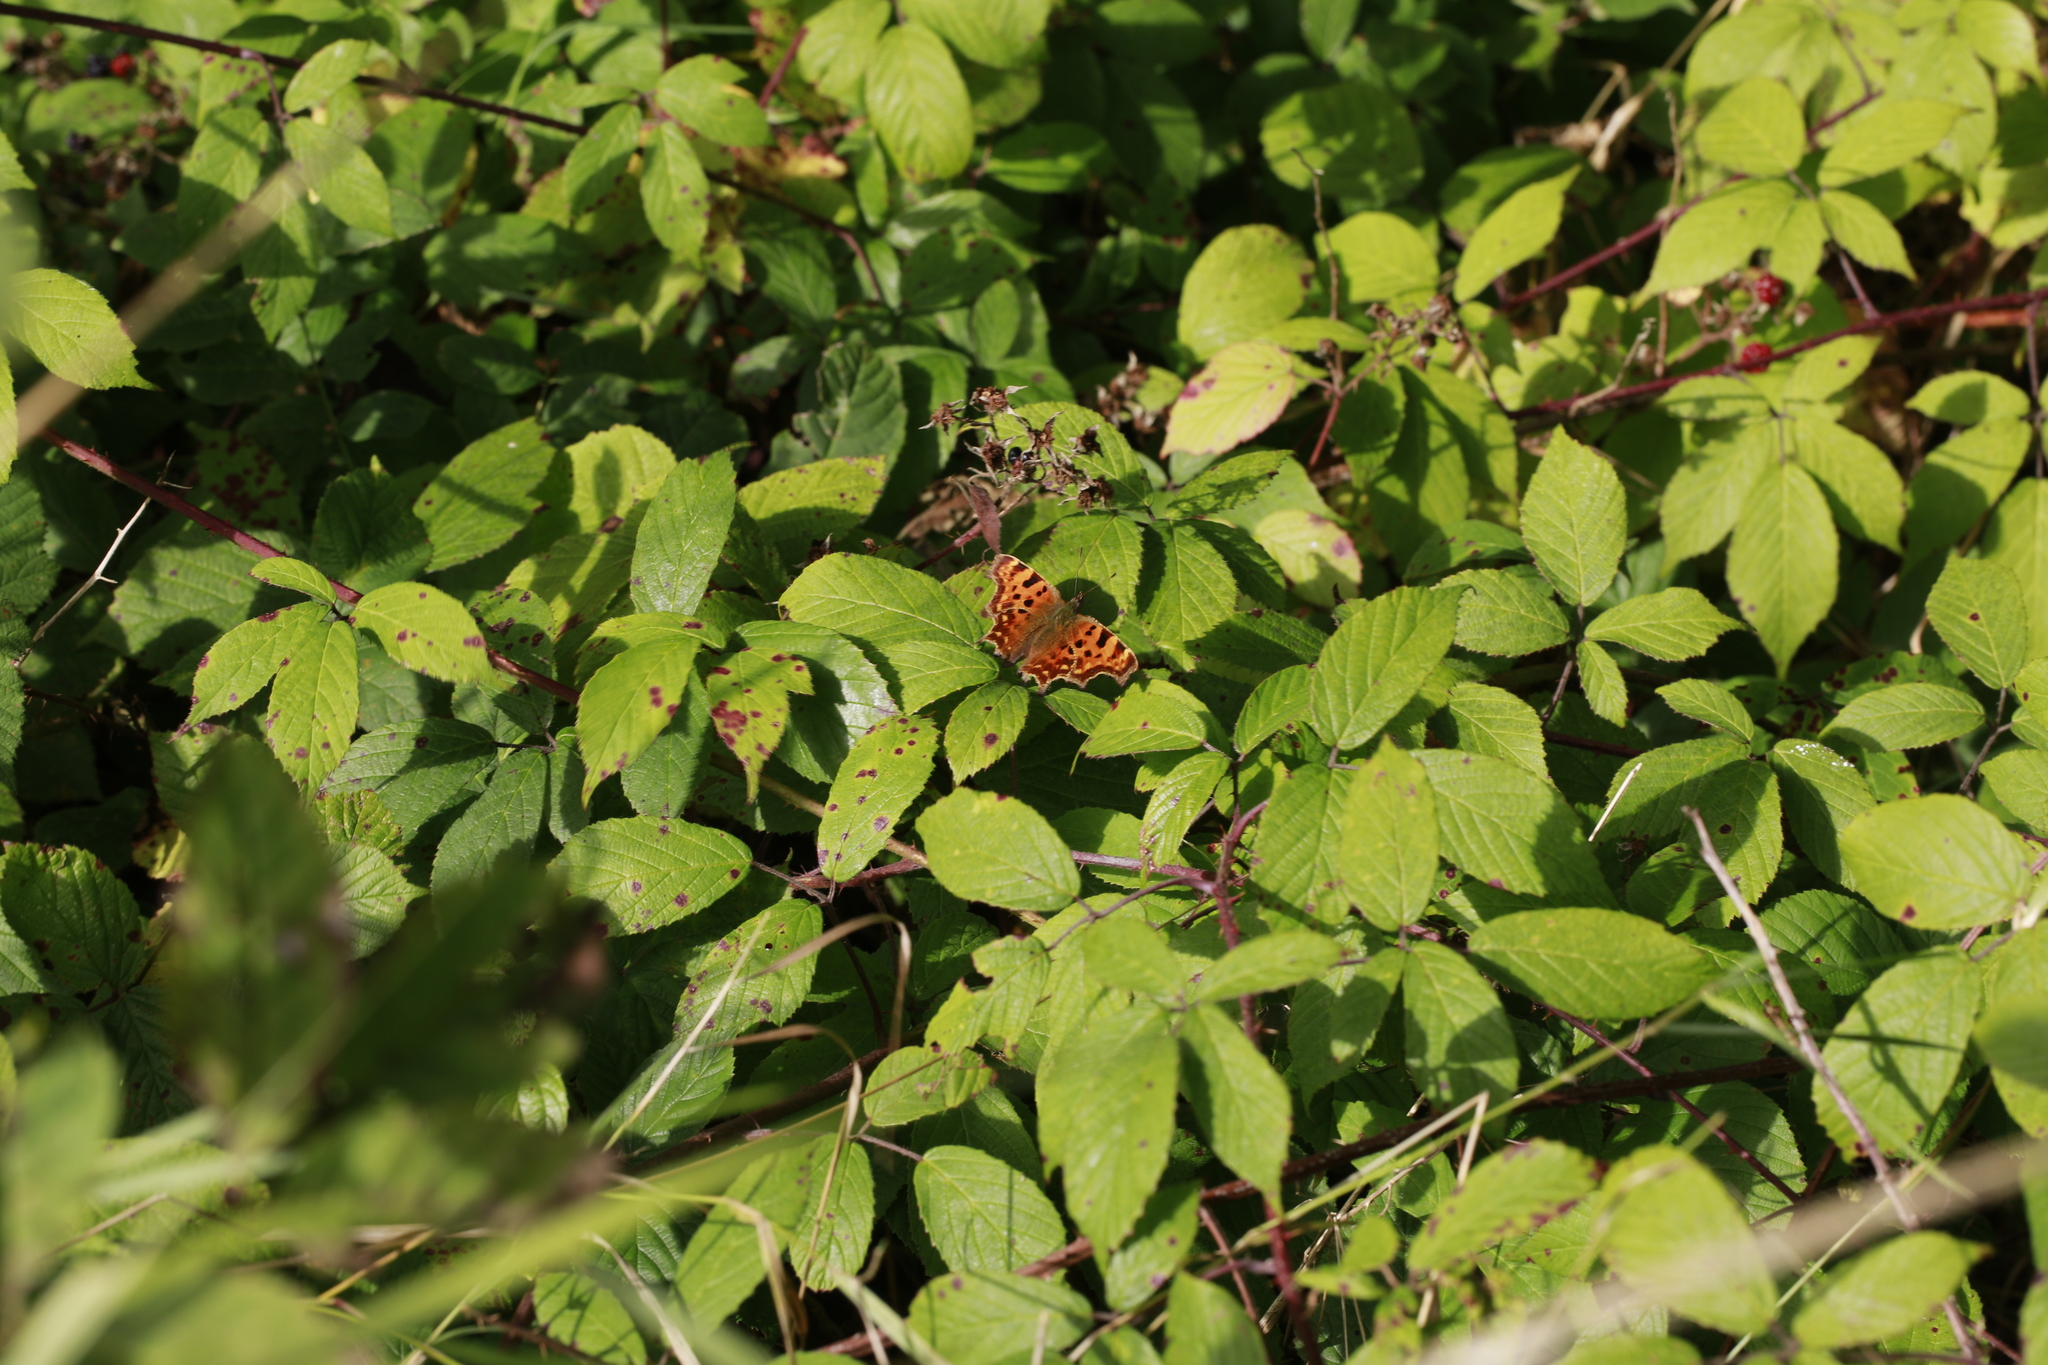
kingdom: Animalia
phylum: Arthropoda
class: Insecta
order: Lepidoptera
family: Nymphalidae
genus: Polygonia
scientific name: Polygonia c-album
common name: Comma
